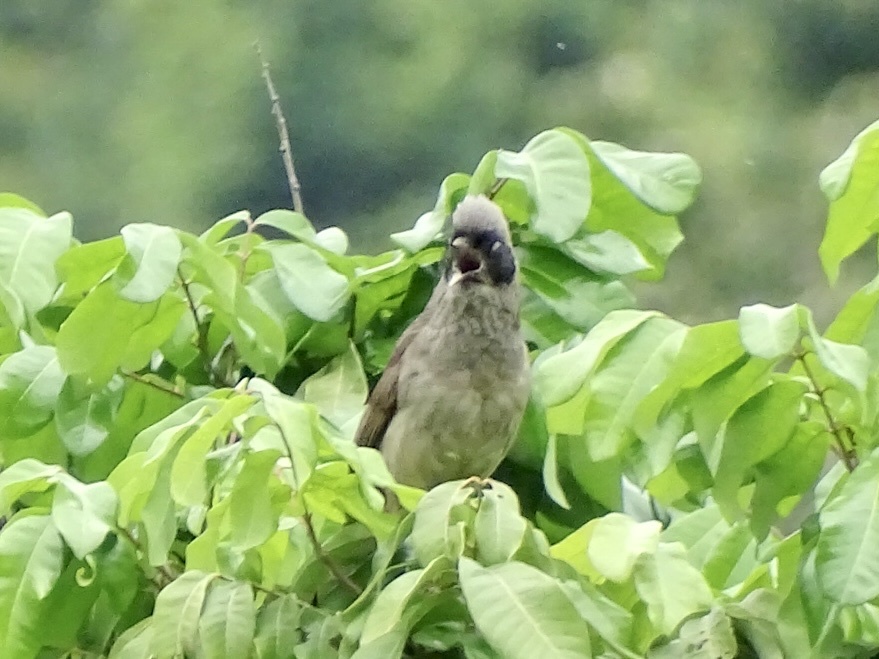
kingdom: Animalia
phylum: Chordata
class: Aves
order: Passeriformes
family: Leiothrichidae
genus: Garrulax
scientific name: Garrulax perspicillatus
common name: Masked laughingthrush
